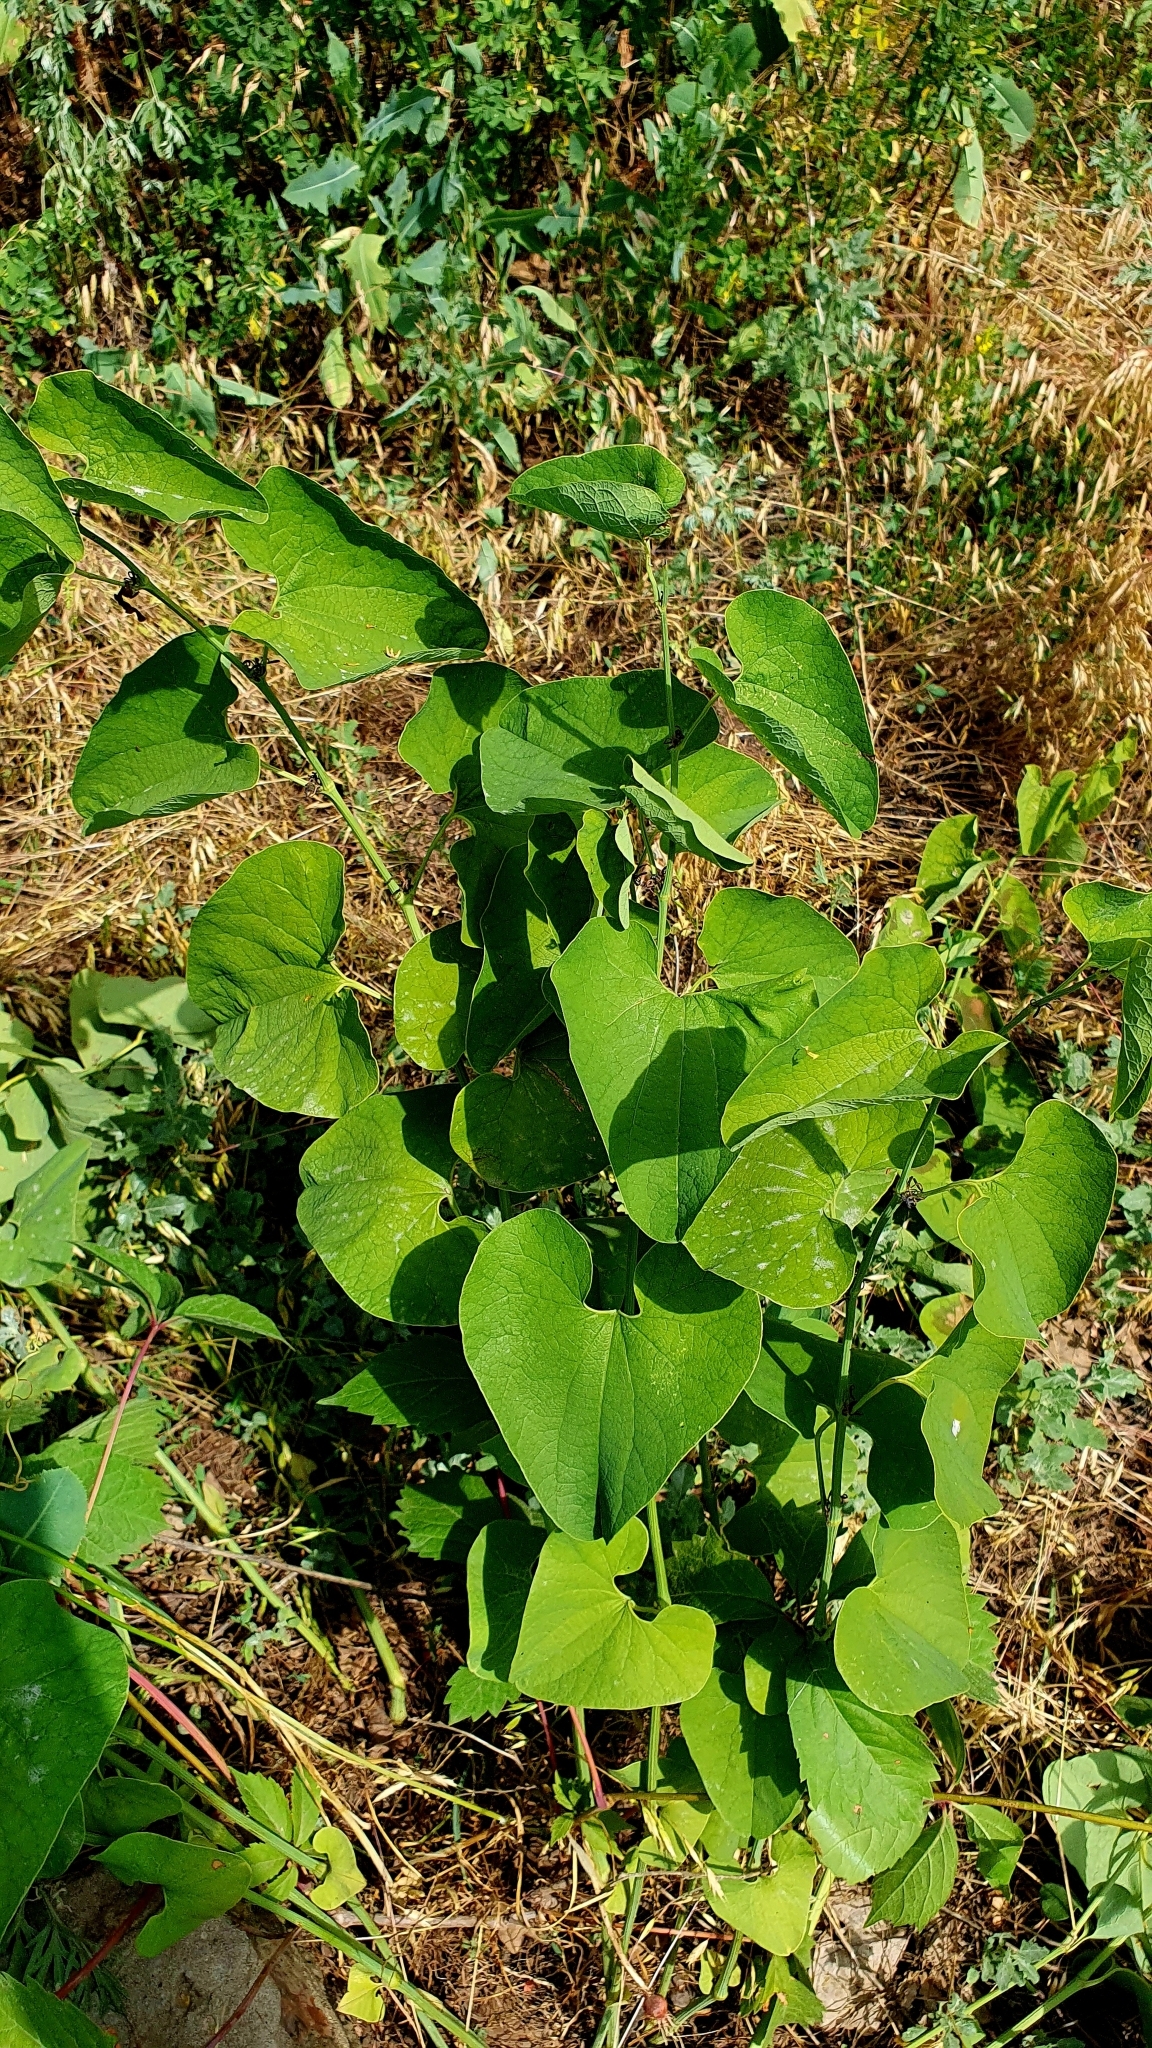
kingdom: Plantae
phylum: Tracheophyta
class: Magnoliopsida
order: Piperales
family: Aristolochiaceae
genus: Aristolochia
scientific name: Aristolochia clematitis
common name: Birthwort
